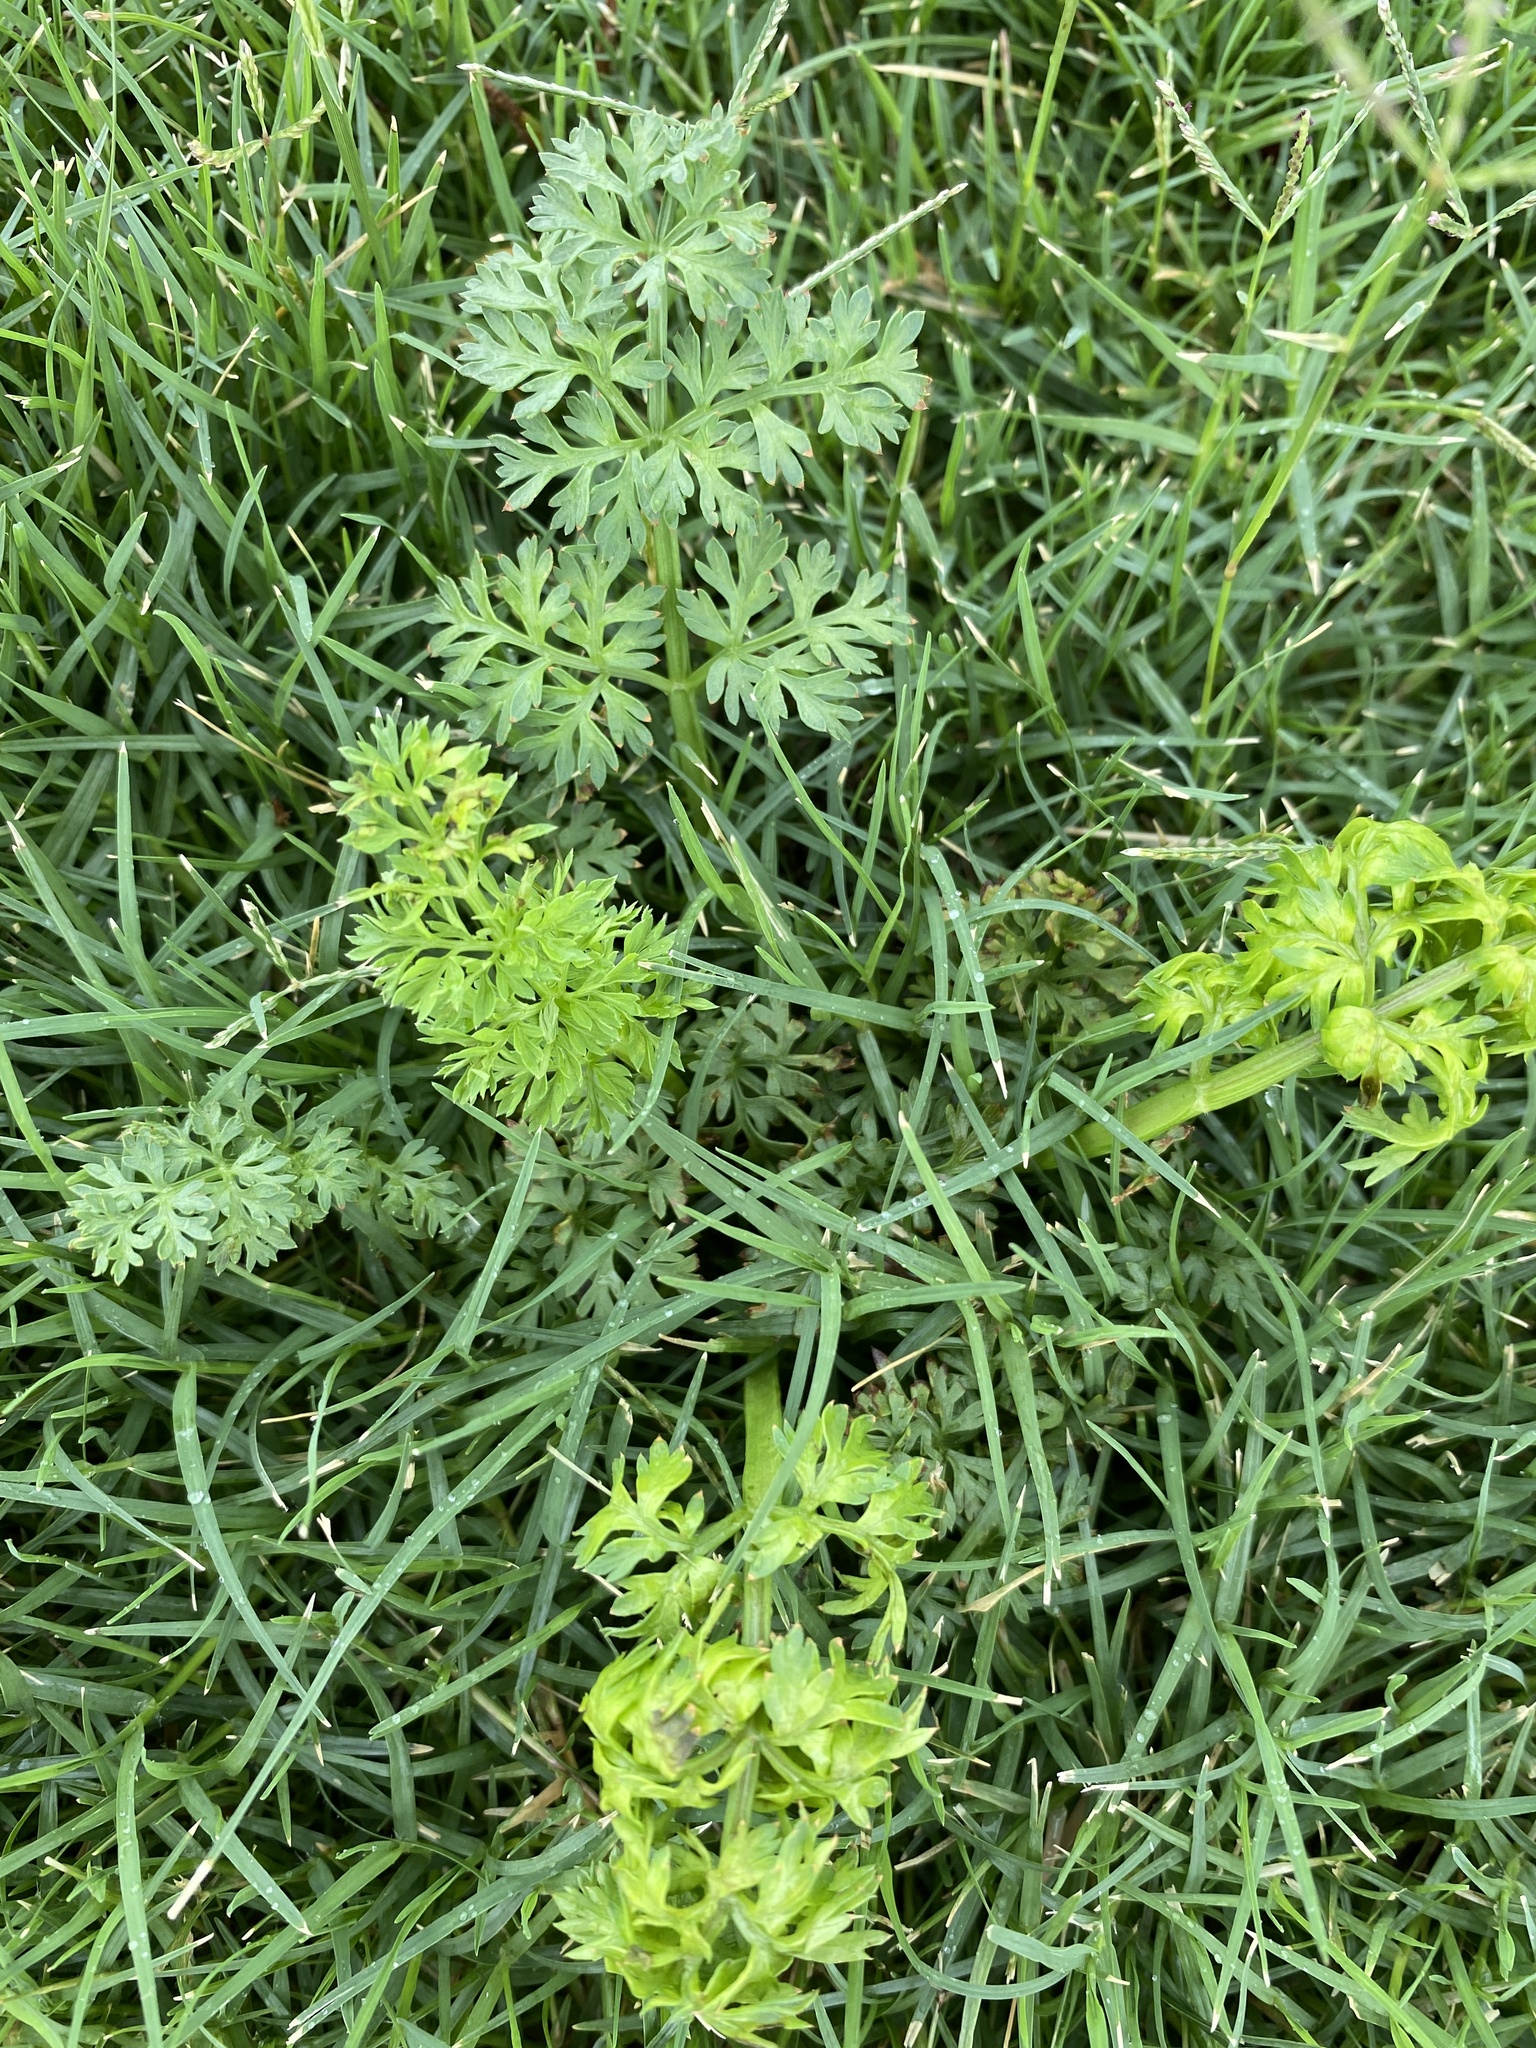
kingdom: Plantae
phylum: Tracheophyta
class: Magnoliopsida
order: Apiales
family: Apiaceae
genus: Daucus
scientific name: Daucus carota
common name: Wild carrot
